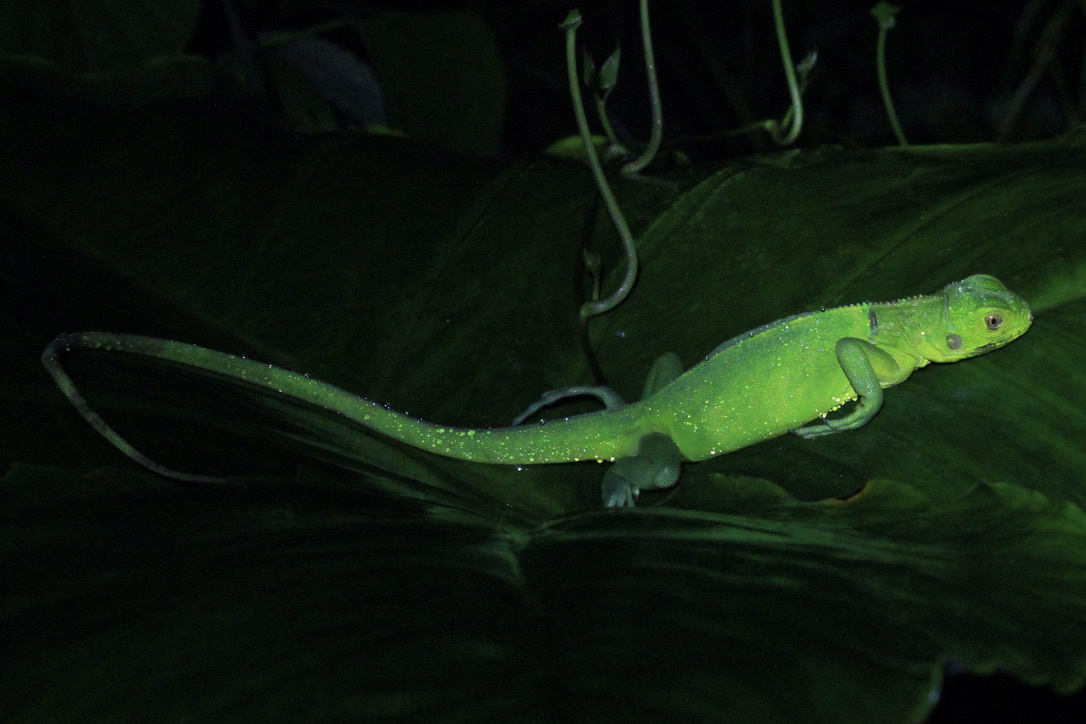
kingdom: Animalia
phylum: Chordata
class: Squamata
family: Iguanidae
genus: Iguana
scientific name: Iguana iguana
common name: Green iguana
